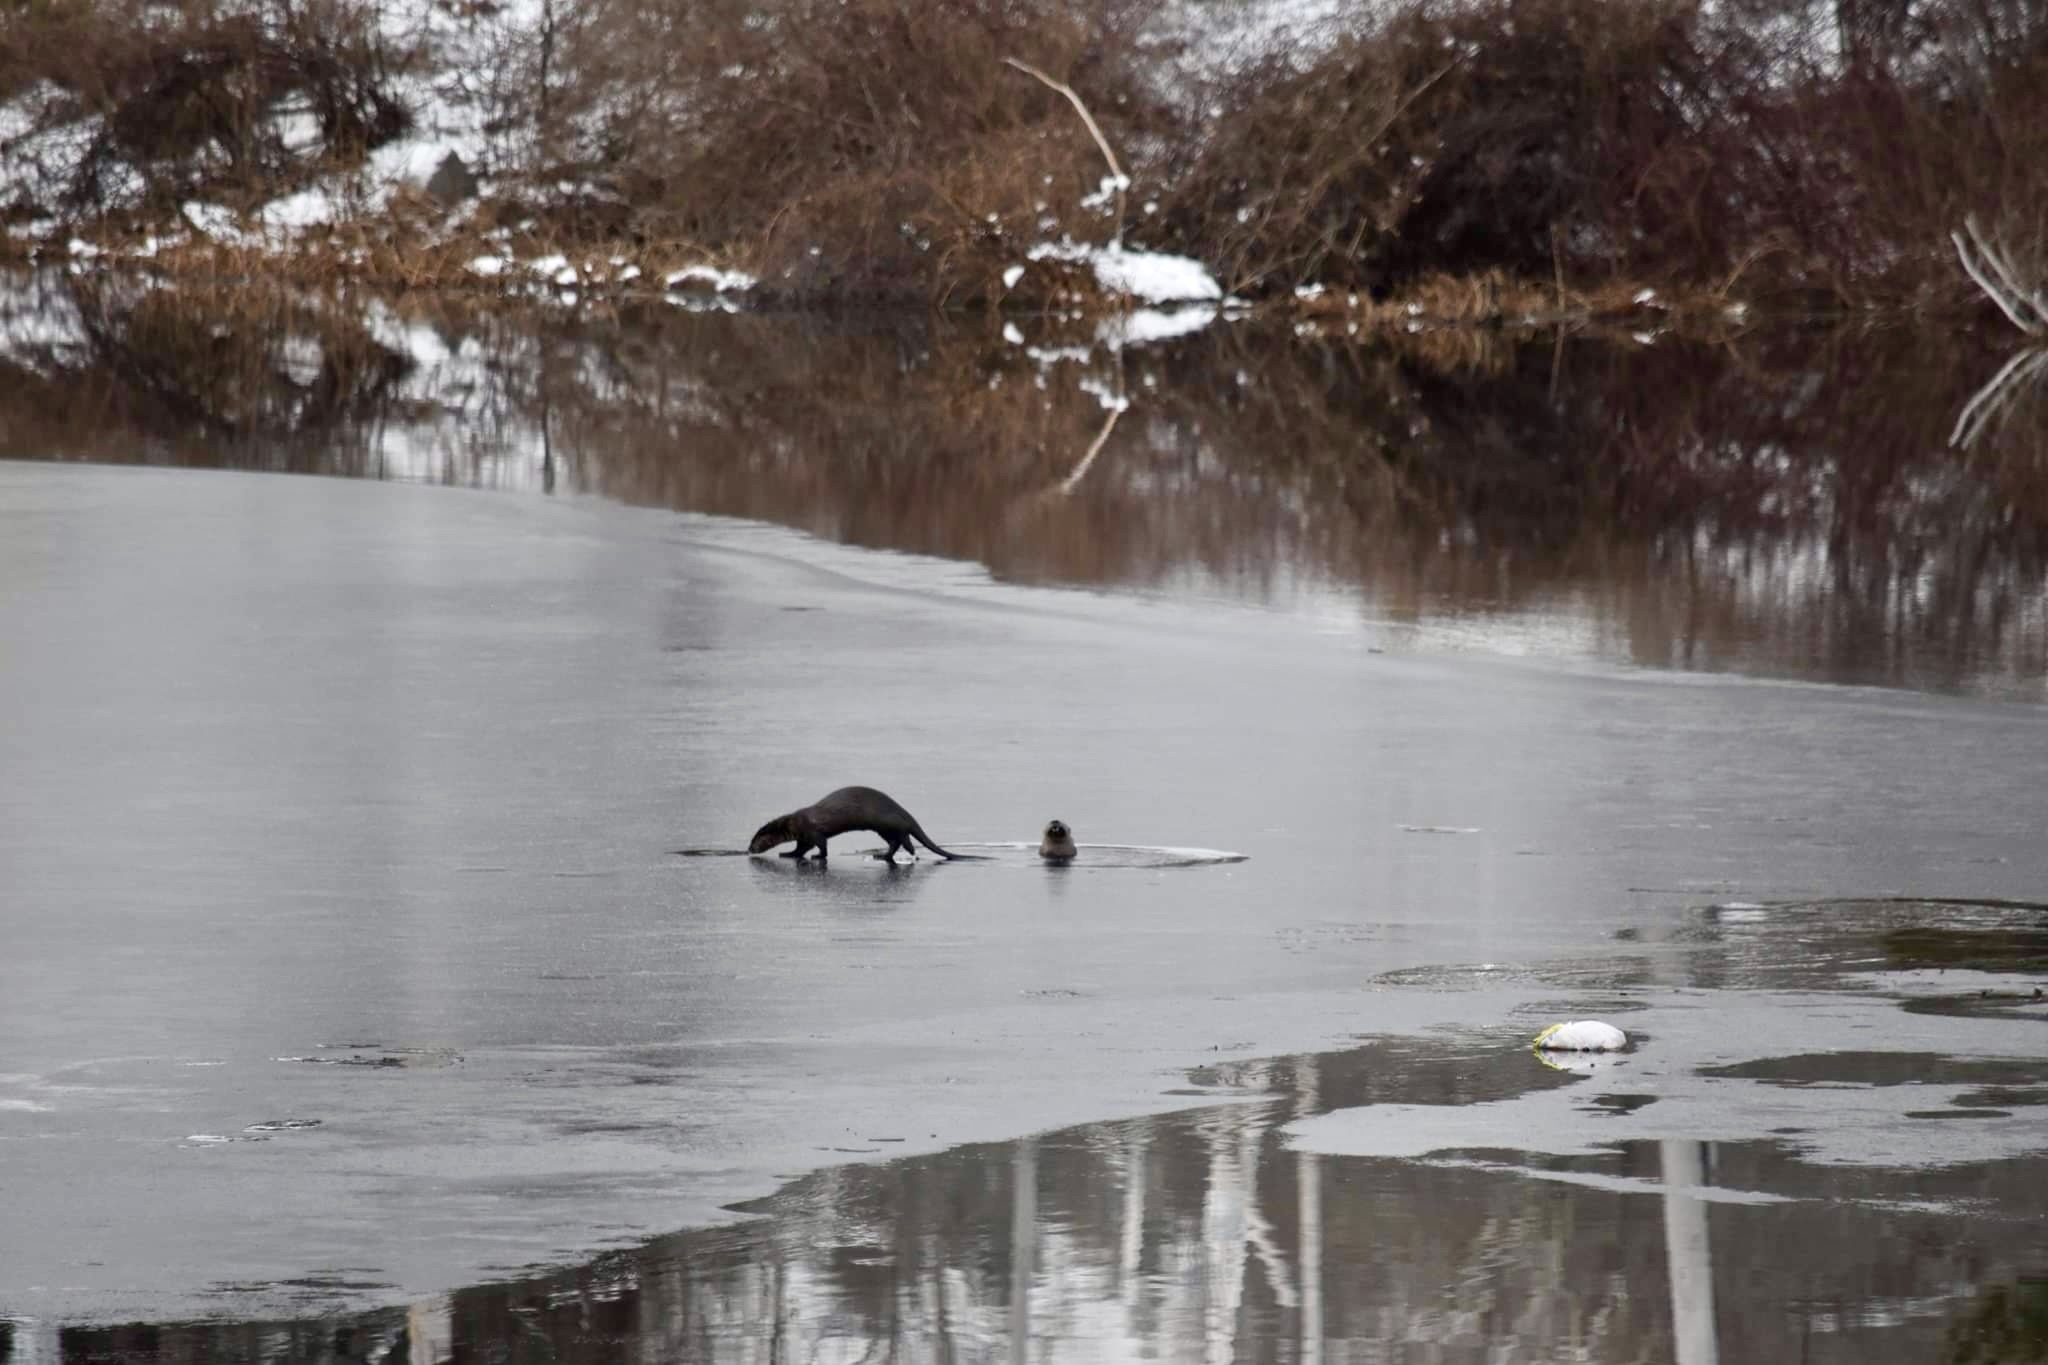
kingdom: Animalia
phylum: Chordata
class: Mammalia
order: Carnivora
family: Mustelidae
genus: Lontra
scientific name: Lontra canadensis
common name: North american river otter
